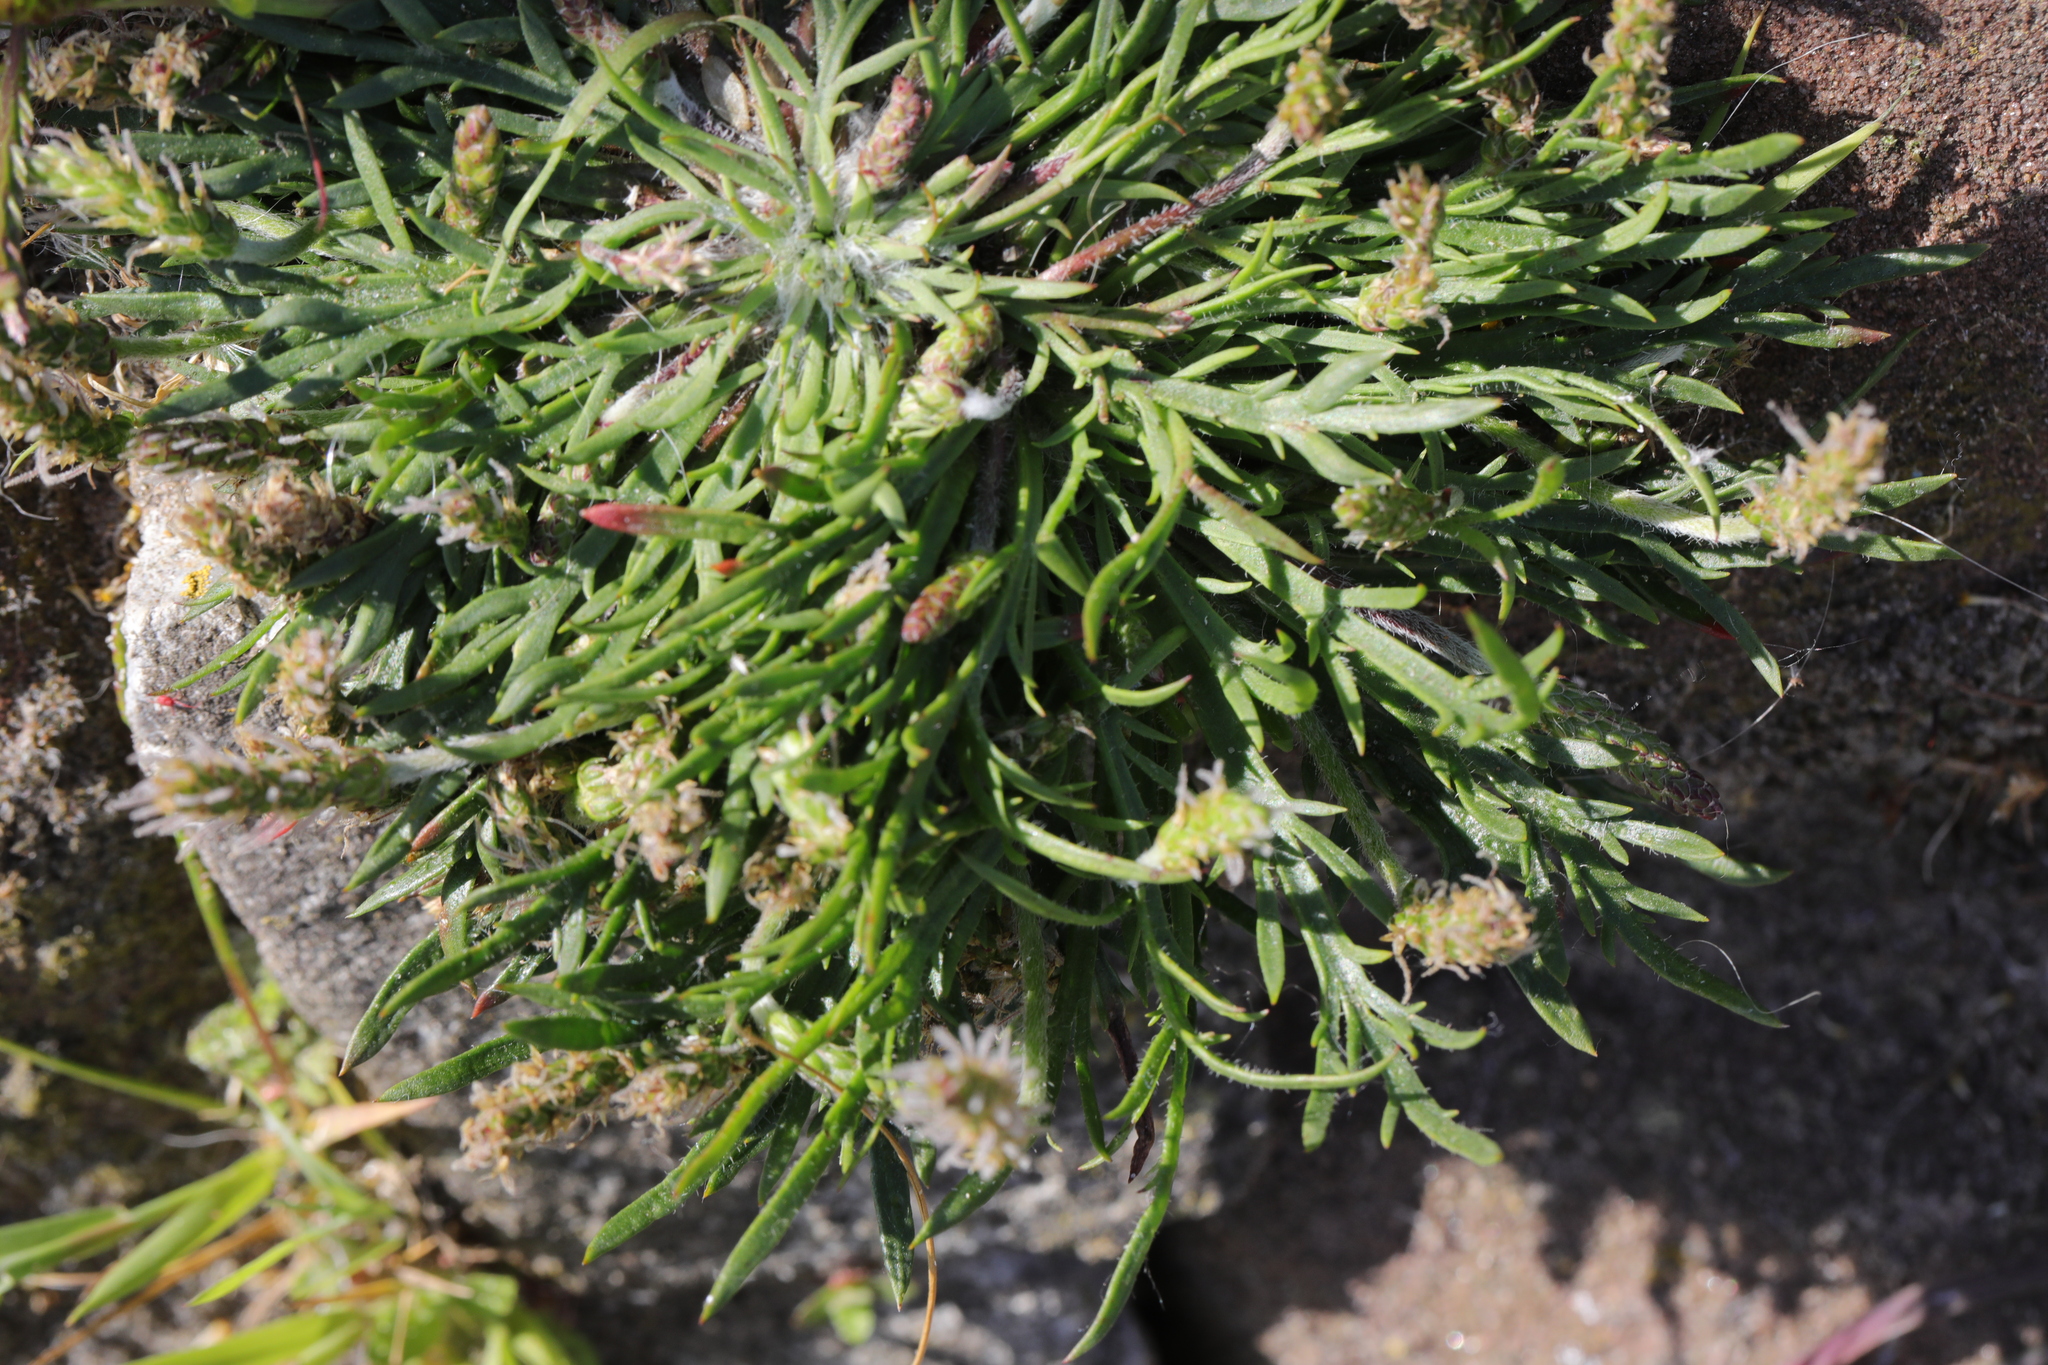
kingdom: Plantae
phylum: Tracheophyta
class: Magnoliopsida
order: Lamiales
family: Plantaginaceae
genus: Plantago
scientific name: Plantago coronopus
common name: Buck's-horn plantain
